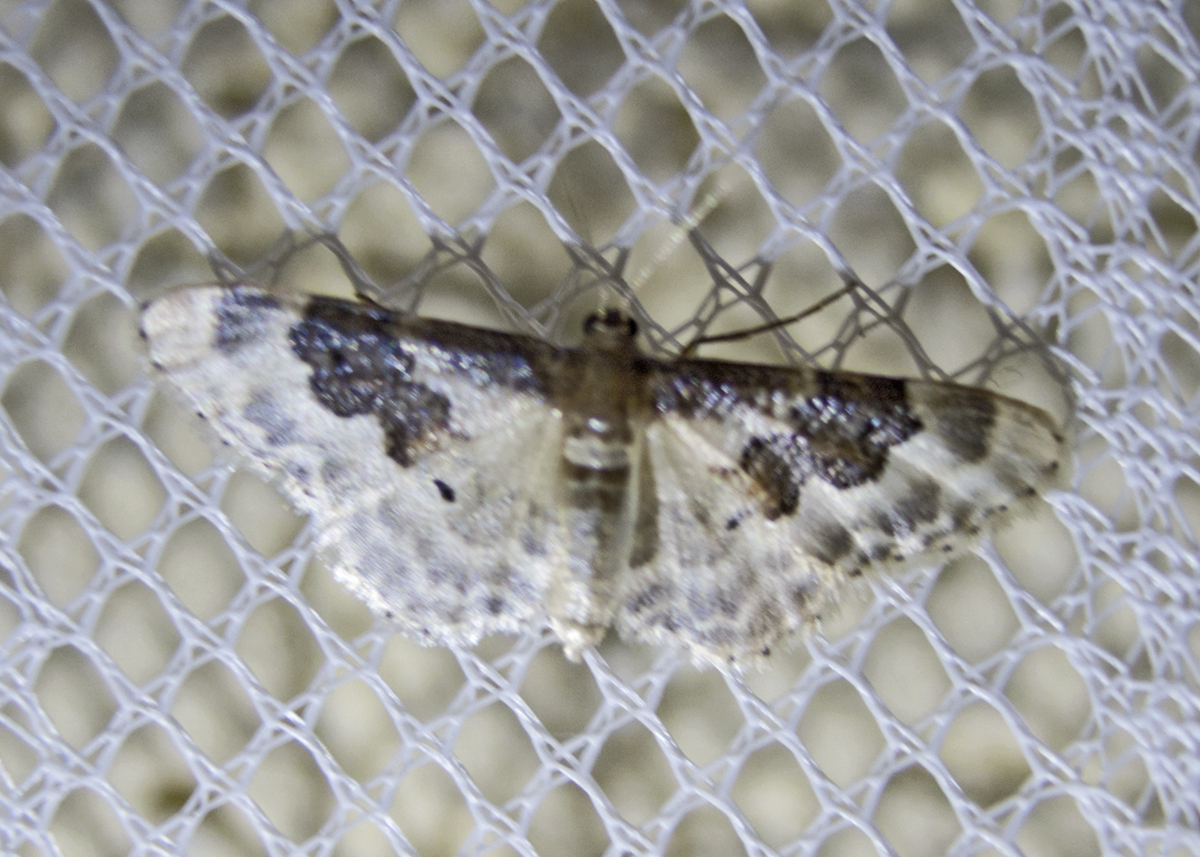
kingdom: Animalia
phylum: Arthropoda
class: Insecta
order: Lepidoptera
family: Geometridae
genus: Idaea
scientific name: Idaea rusticata
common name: Least carpet
